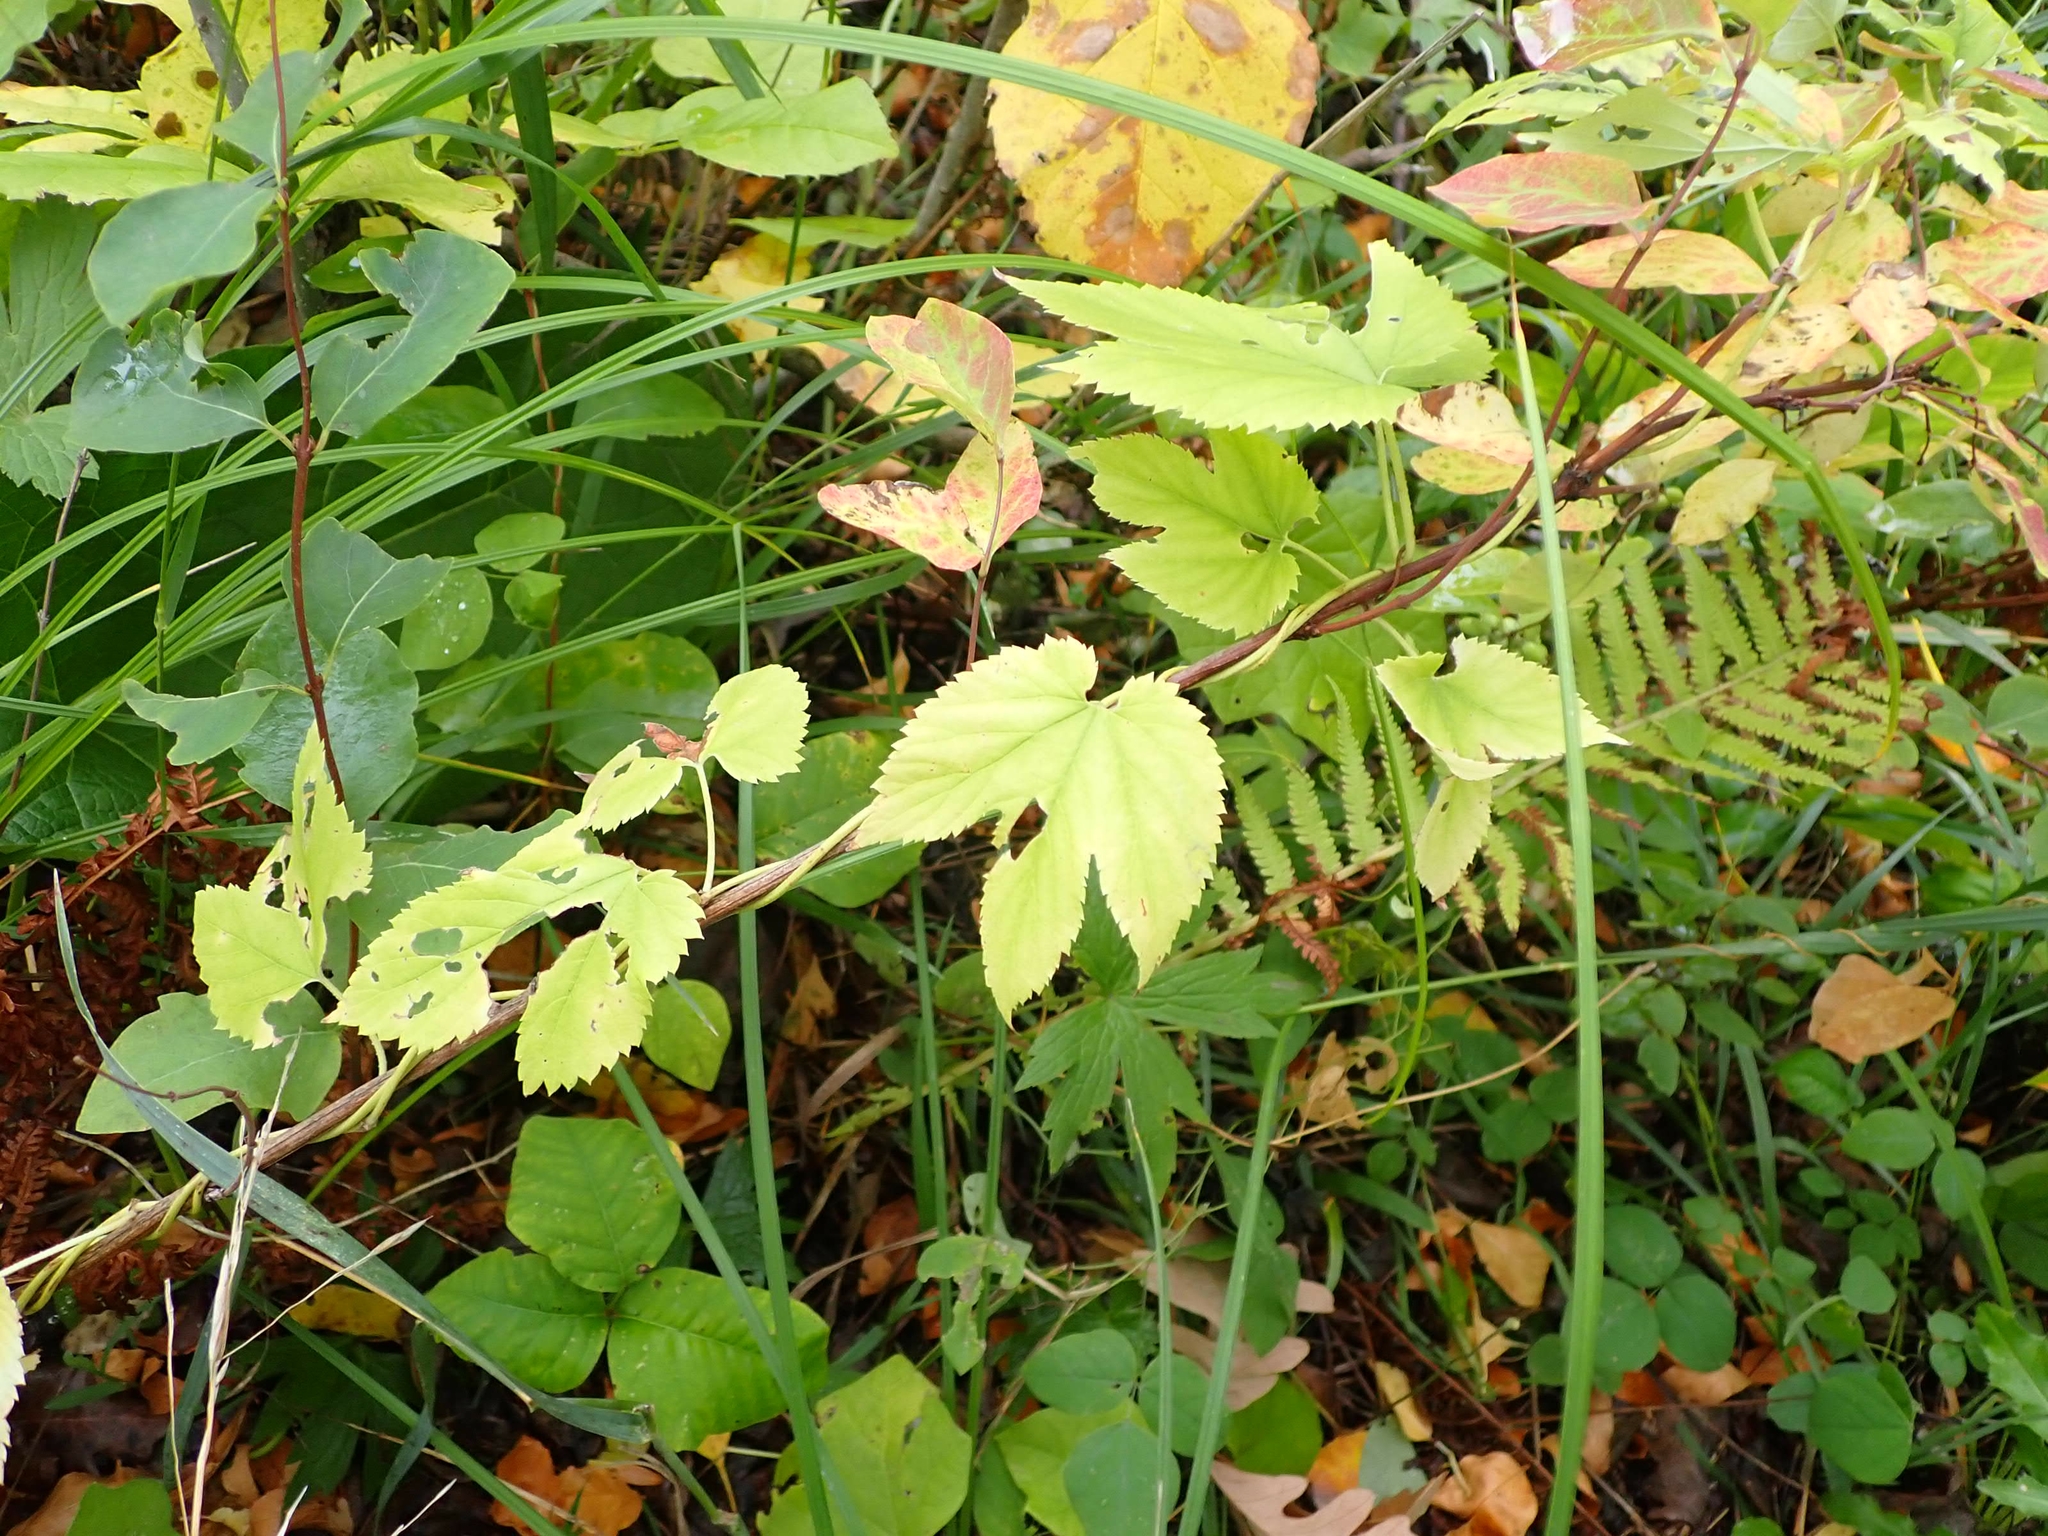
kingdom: Plantae
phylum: Tracheophyta
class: Magnoliopsida
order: Rosales
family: Cannabaceae
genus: Humulus
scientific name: Humulus lupulus
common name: Hop
